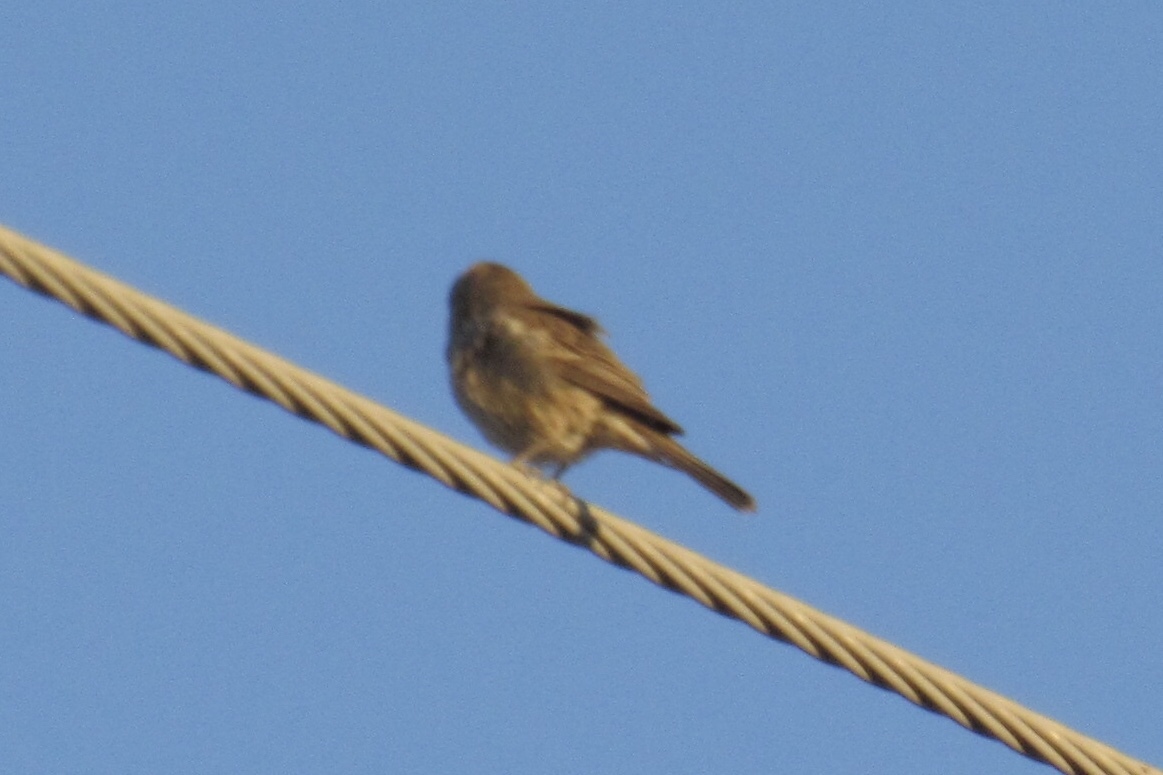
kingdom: Animalia
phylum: Chordata
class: Aves
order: Passeriformes
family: Fringillidae
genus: Haemorhous
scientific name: Haemorhous mexicanus
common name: House finch
